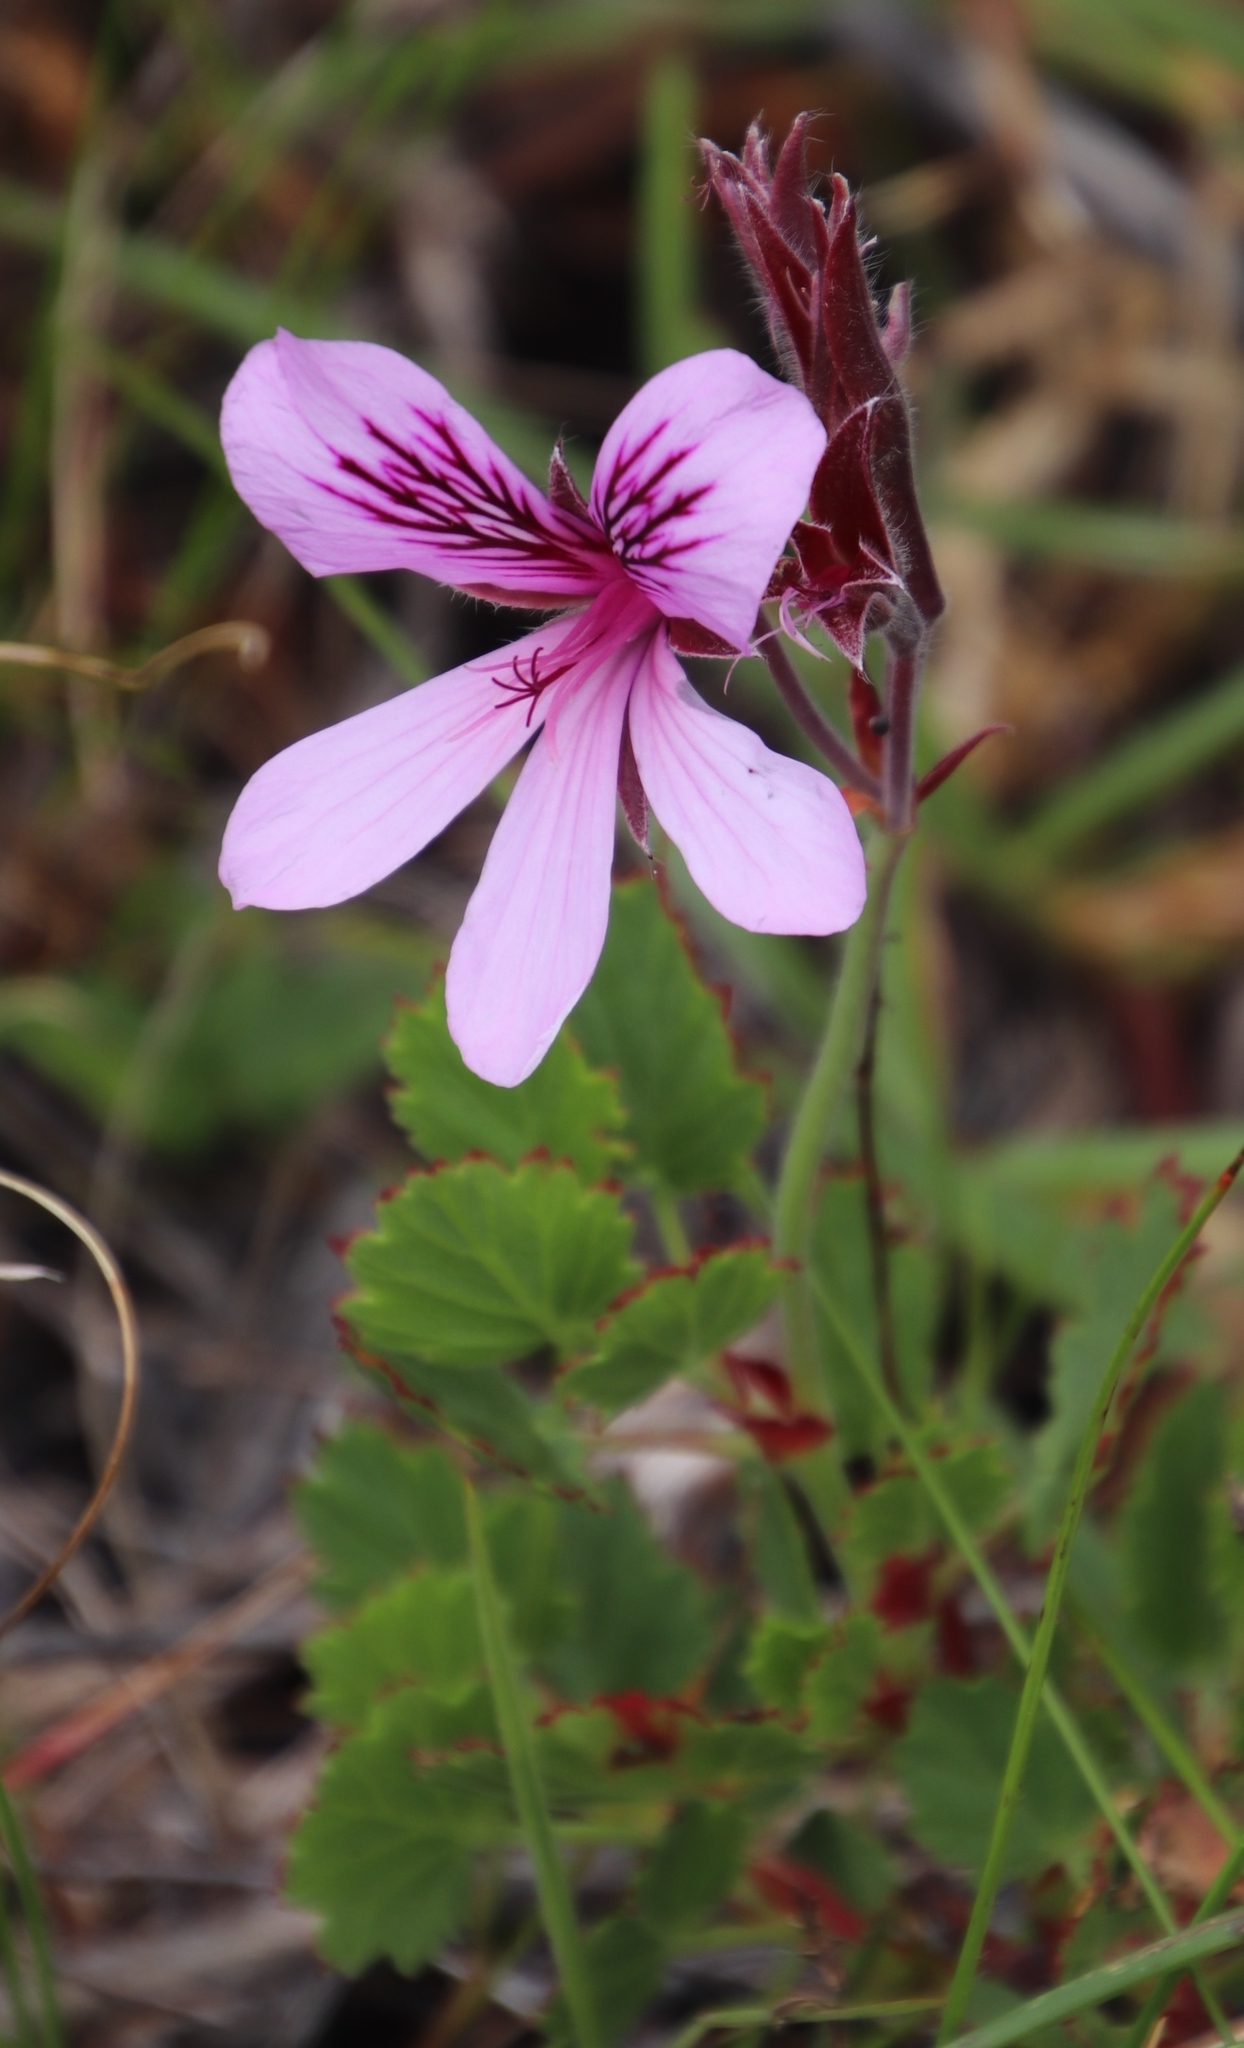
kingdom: Plantae
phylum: Tracheophyta
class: Magnoliopsida
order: Geraniales
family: Geraniaceae
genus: Pelargonium
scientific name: Pelargonium betulinum
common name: Birch-leaf pelargonium
